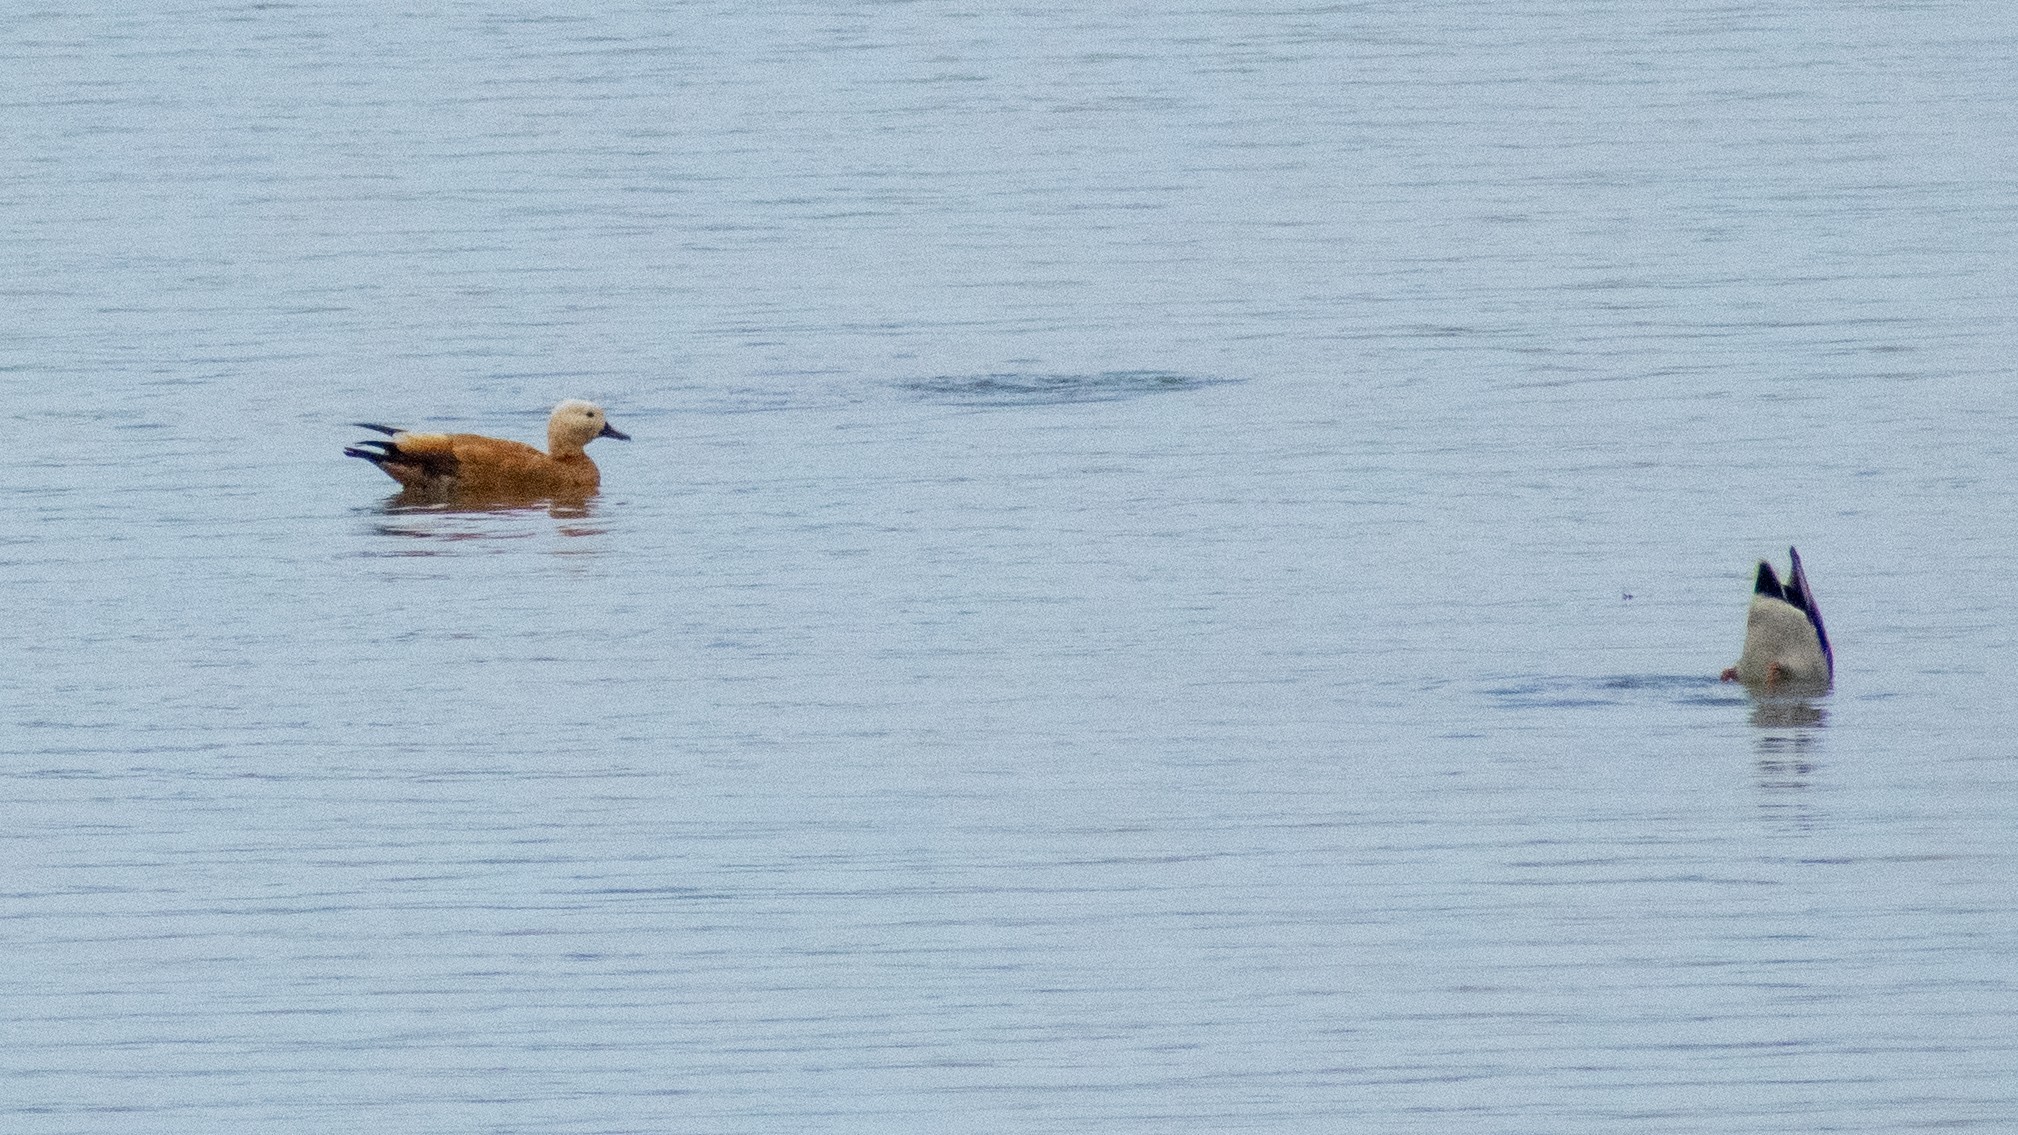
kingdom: Animalia
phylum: Chordata
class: Aves
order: Anseriformes
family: Anatidae
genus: Tadorna
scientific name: Tadorna ferruginea
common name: Ruddy shelduck
